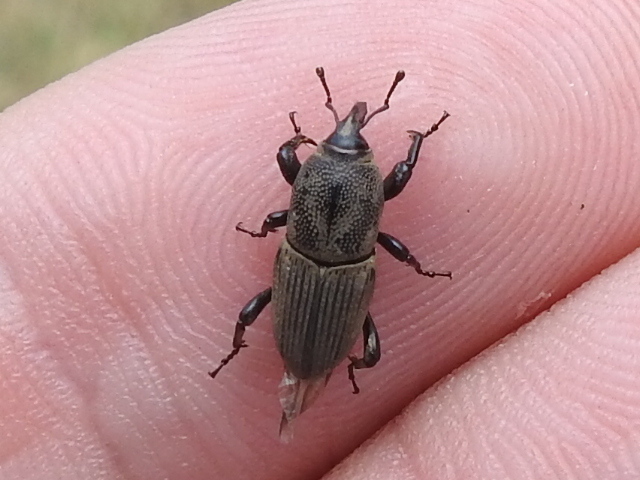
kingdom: Animalia
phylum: Arthropoda
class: Insecta
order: Coleoptera
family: Dryophthoridae
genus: Sphenophorus
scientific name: Sphenophorus coesifrons
